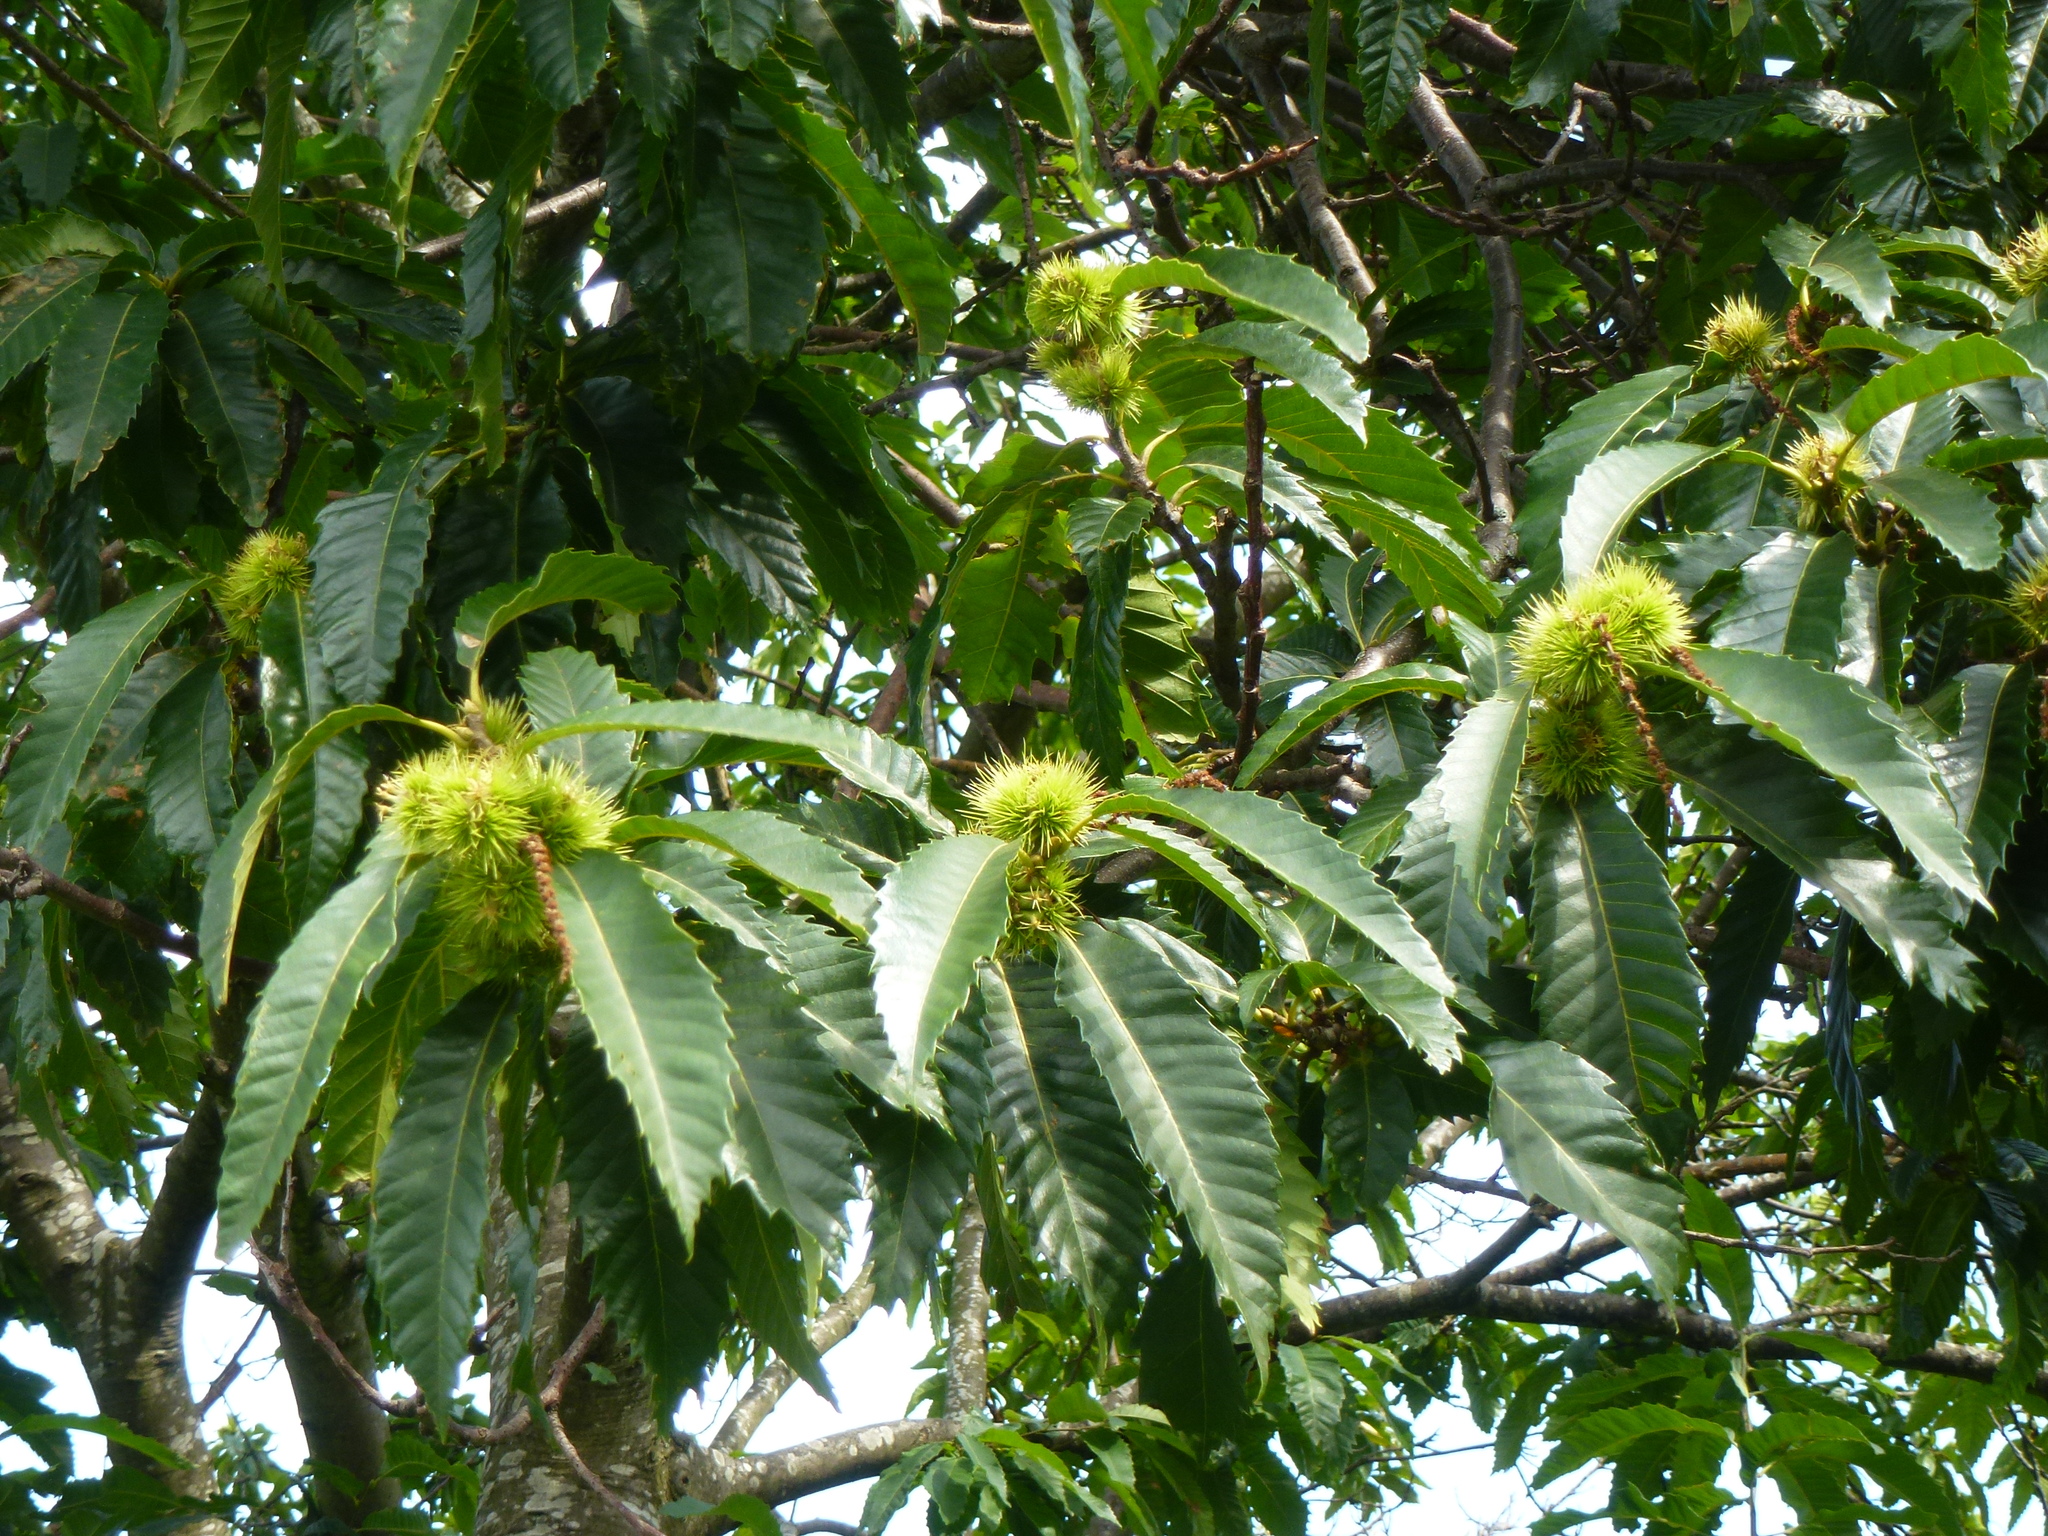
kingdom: Plantae
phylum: Tracheophyta
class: Magnoliopsida
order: Fagales
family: Fagaceae
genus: Castanea
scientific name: Castanea sativa
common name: Sweet chestnut
